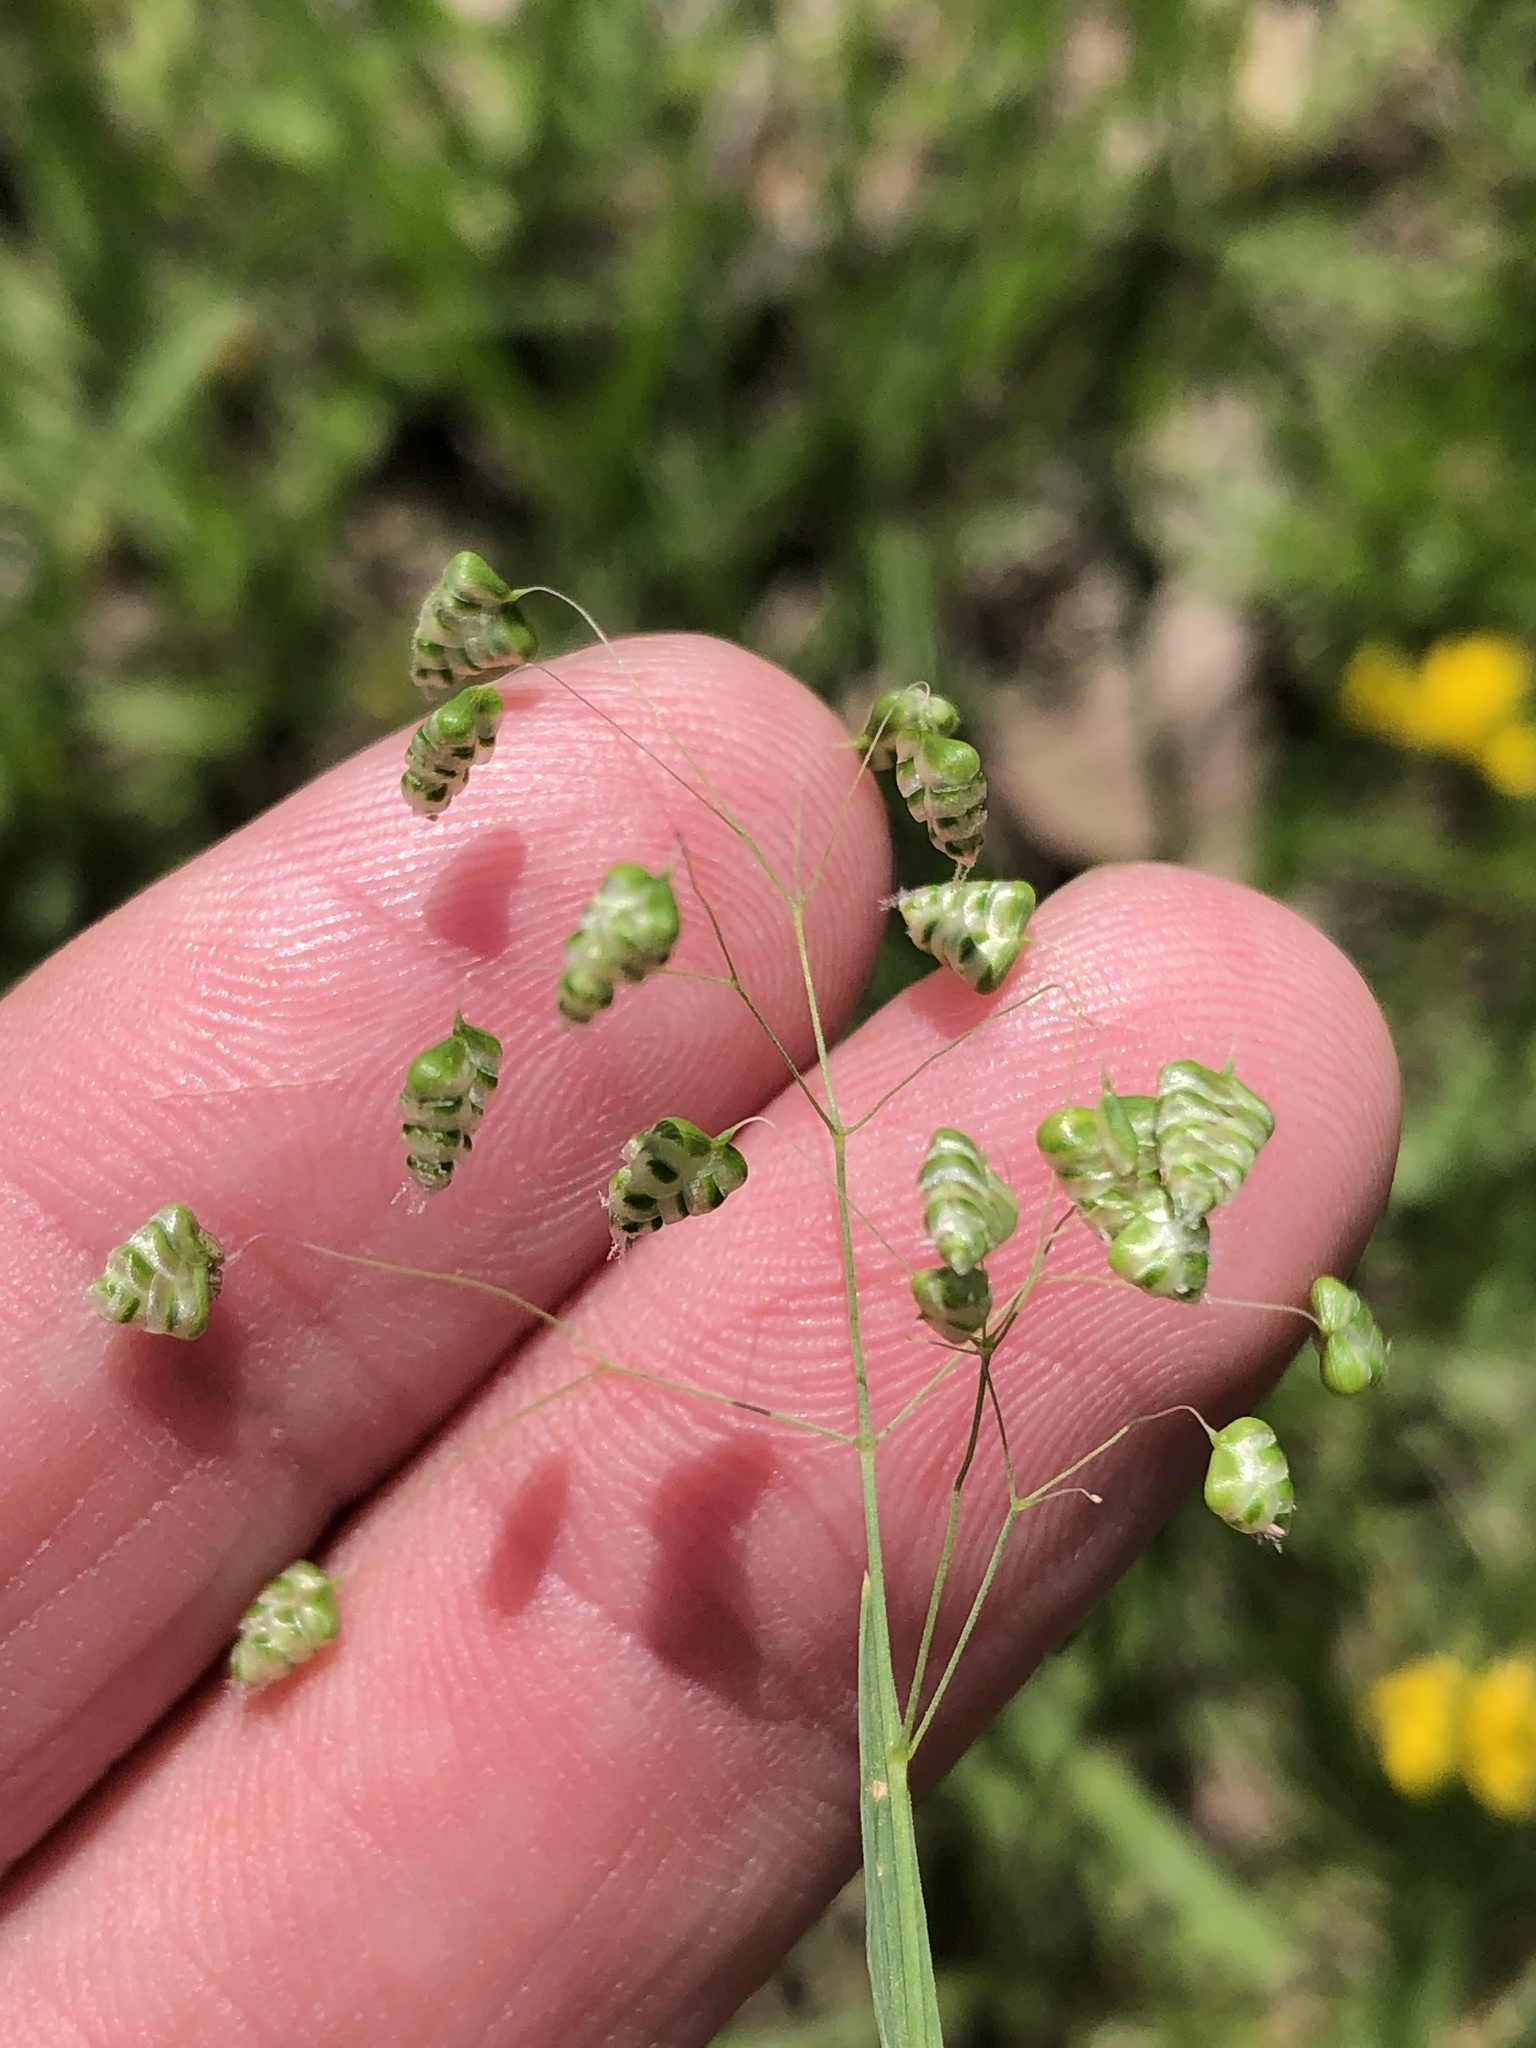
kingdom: Plantae
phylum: Tracheophyta
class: Liliopsida
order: Poales
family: Poaceae
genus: Briza
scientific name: Briza minor
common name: Lesser quaking-grass
